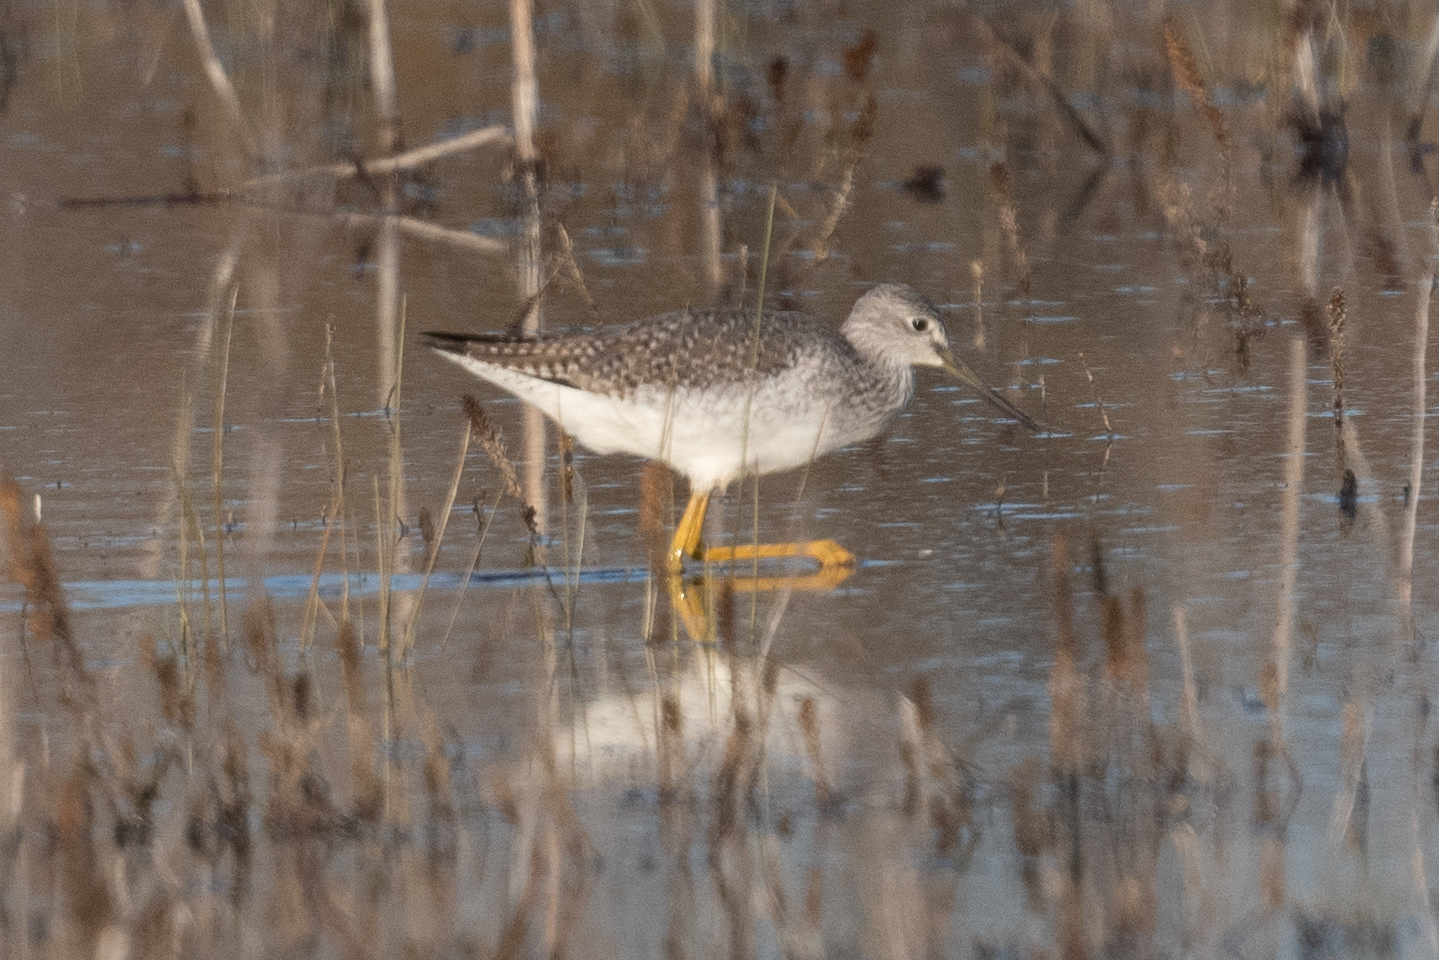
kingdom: Animalia
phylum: Chordata
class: Aves
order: Charadriiformes
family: Scolopacidae
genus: Tringa
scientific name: Tringa melanoleuca
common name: Greater yellowlegs
